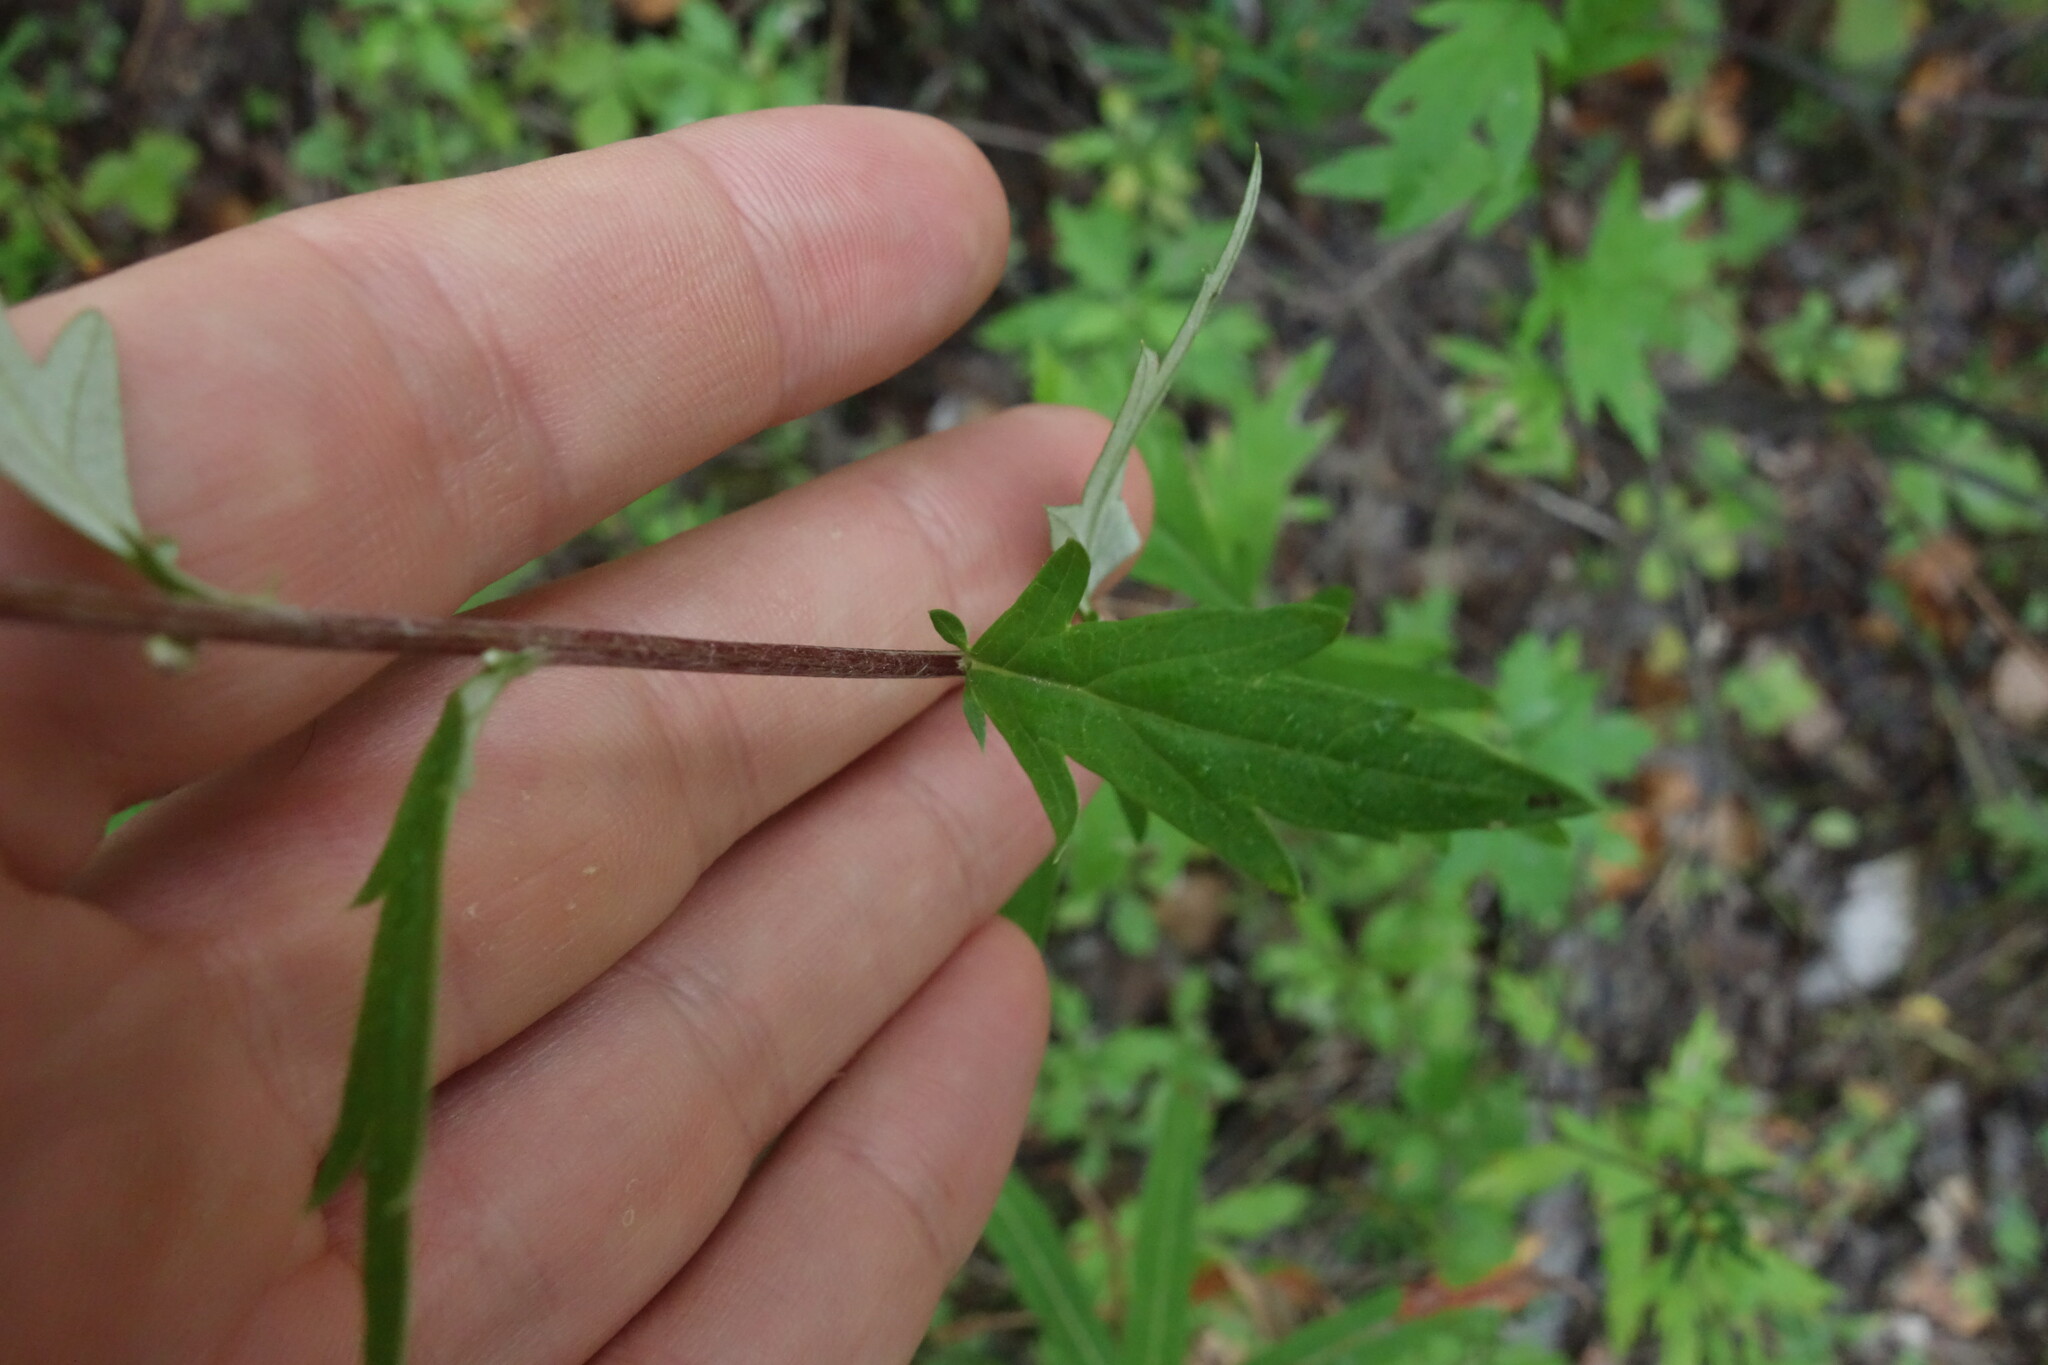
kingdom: Plantae
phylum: Tracheophyta
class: Magnoliopsida
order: Asterales
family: Asteraceae
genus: Artemisia
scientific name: Artemisia integrifolia
